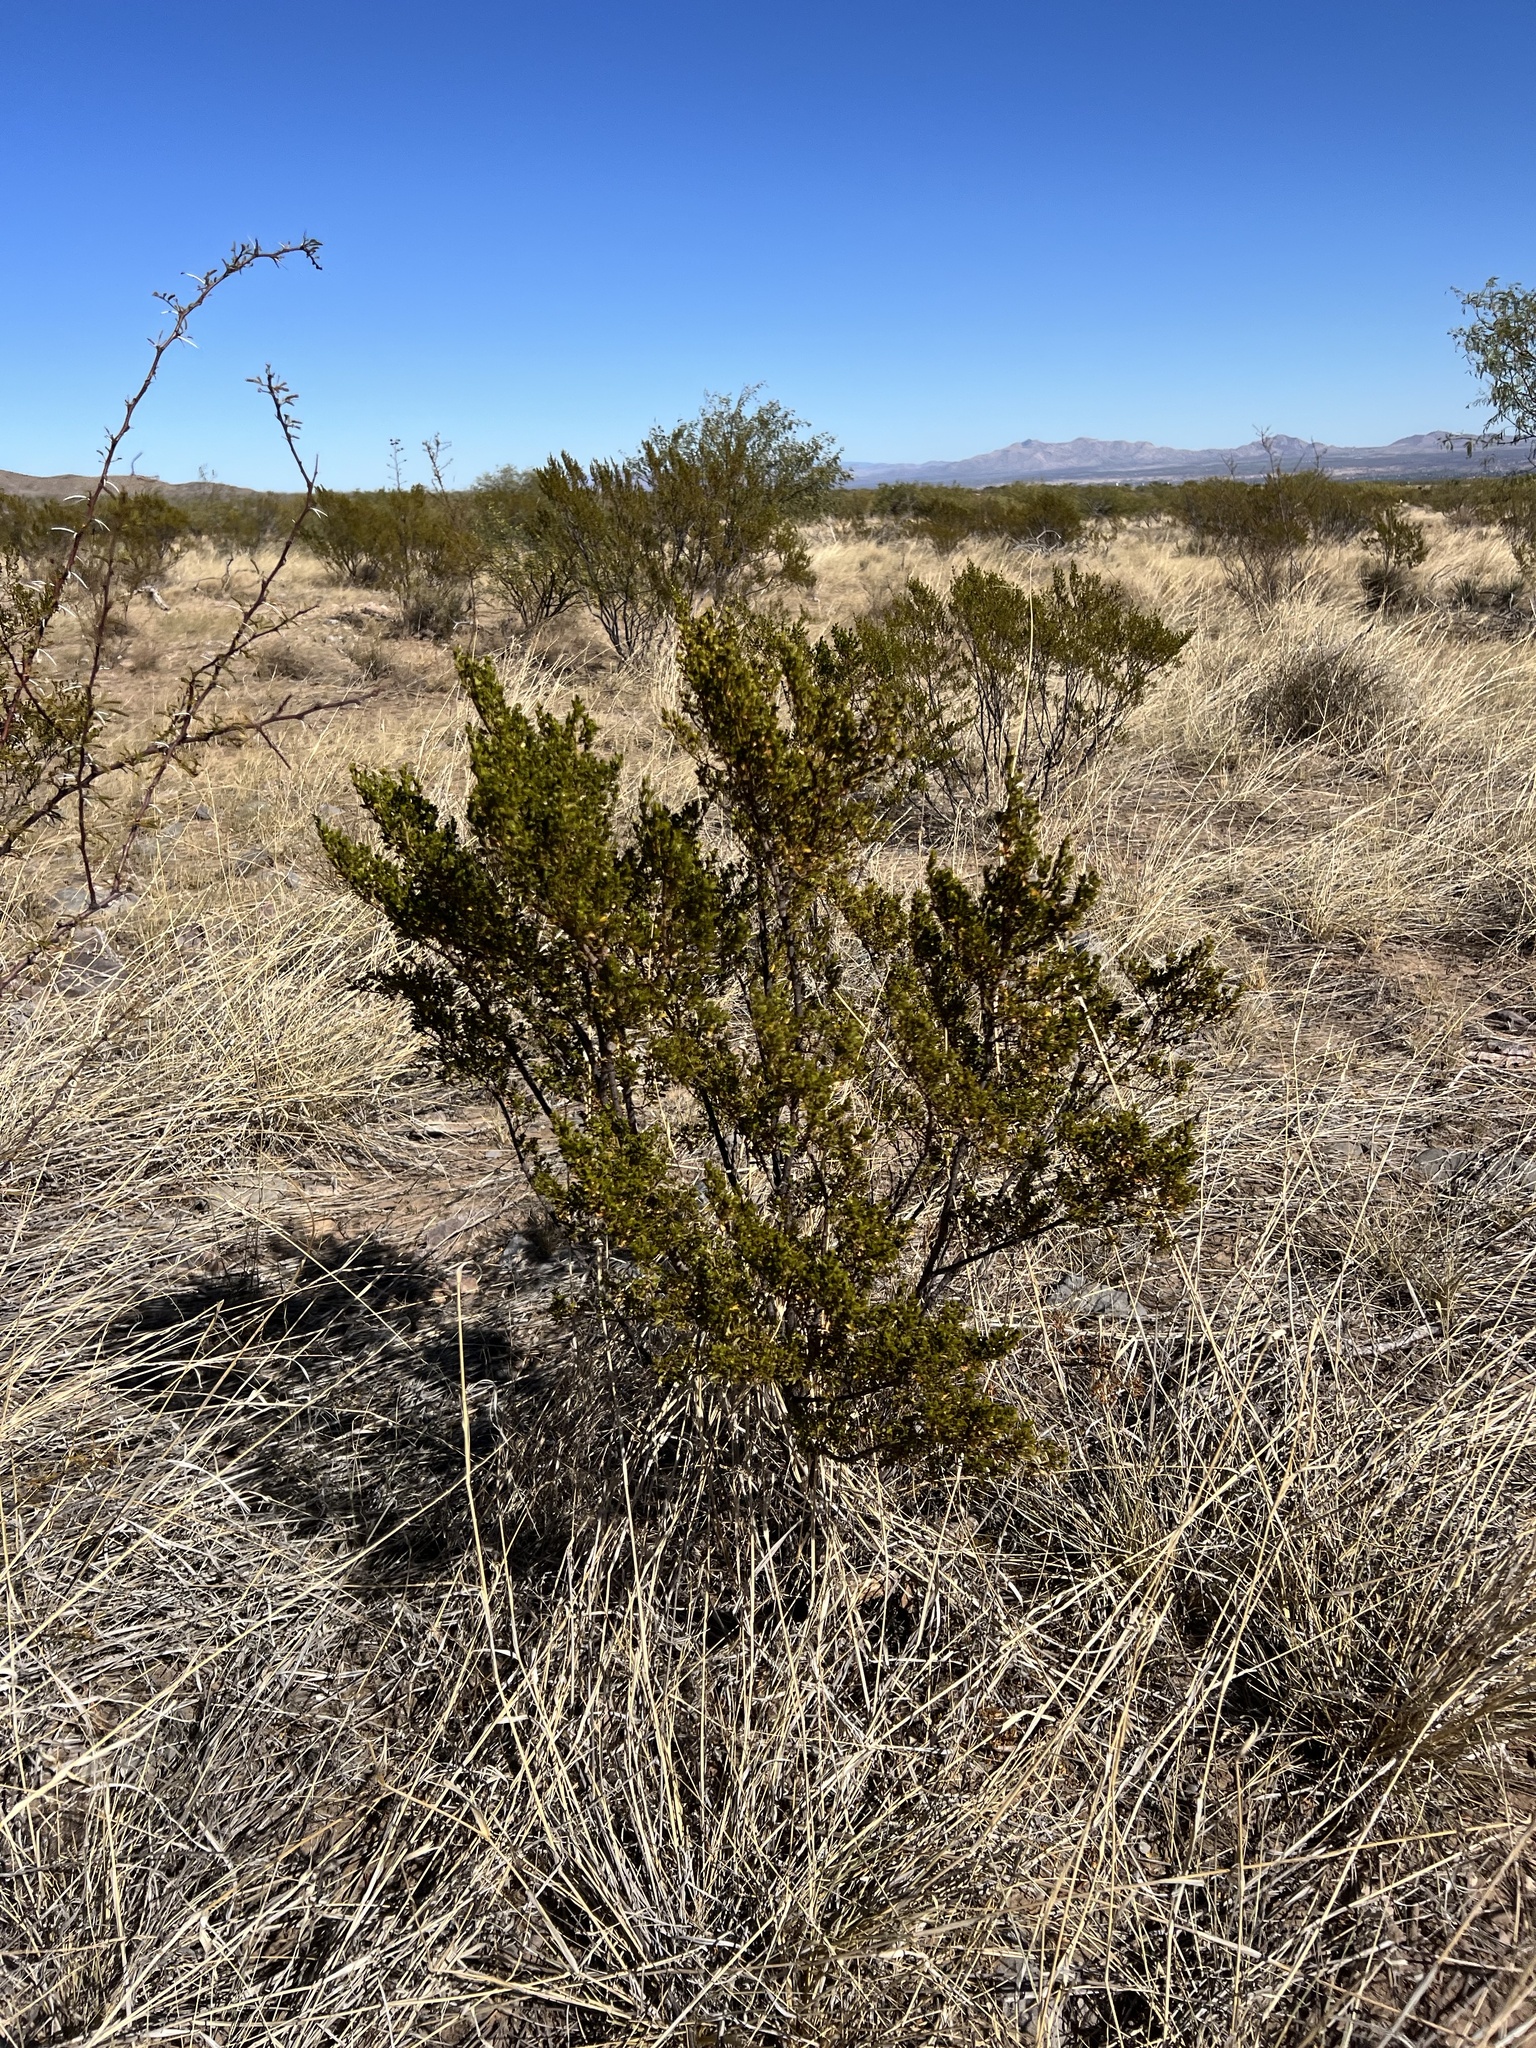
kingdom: Plantae
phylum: Tracheophyta
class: Magnoliopsida
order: Zygophyllales
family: Zygophyllaceae
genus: Larrea
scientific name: Larrea tridentata
